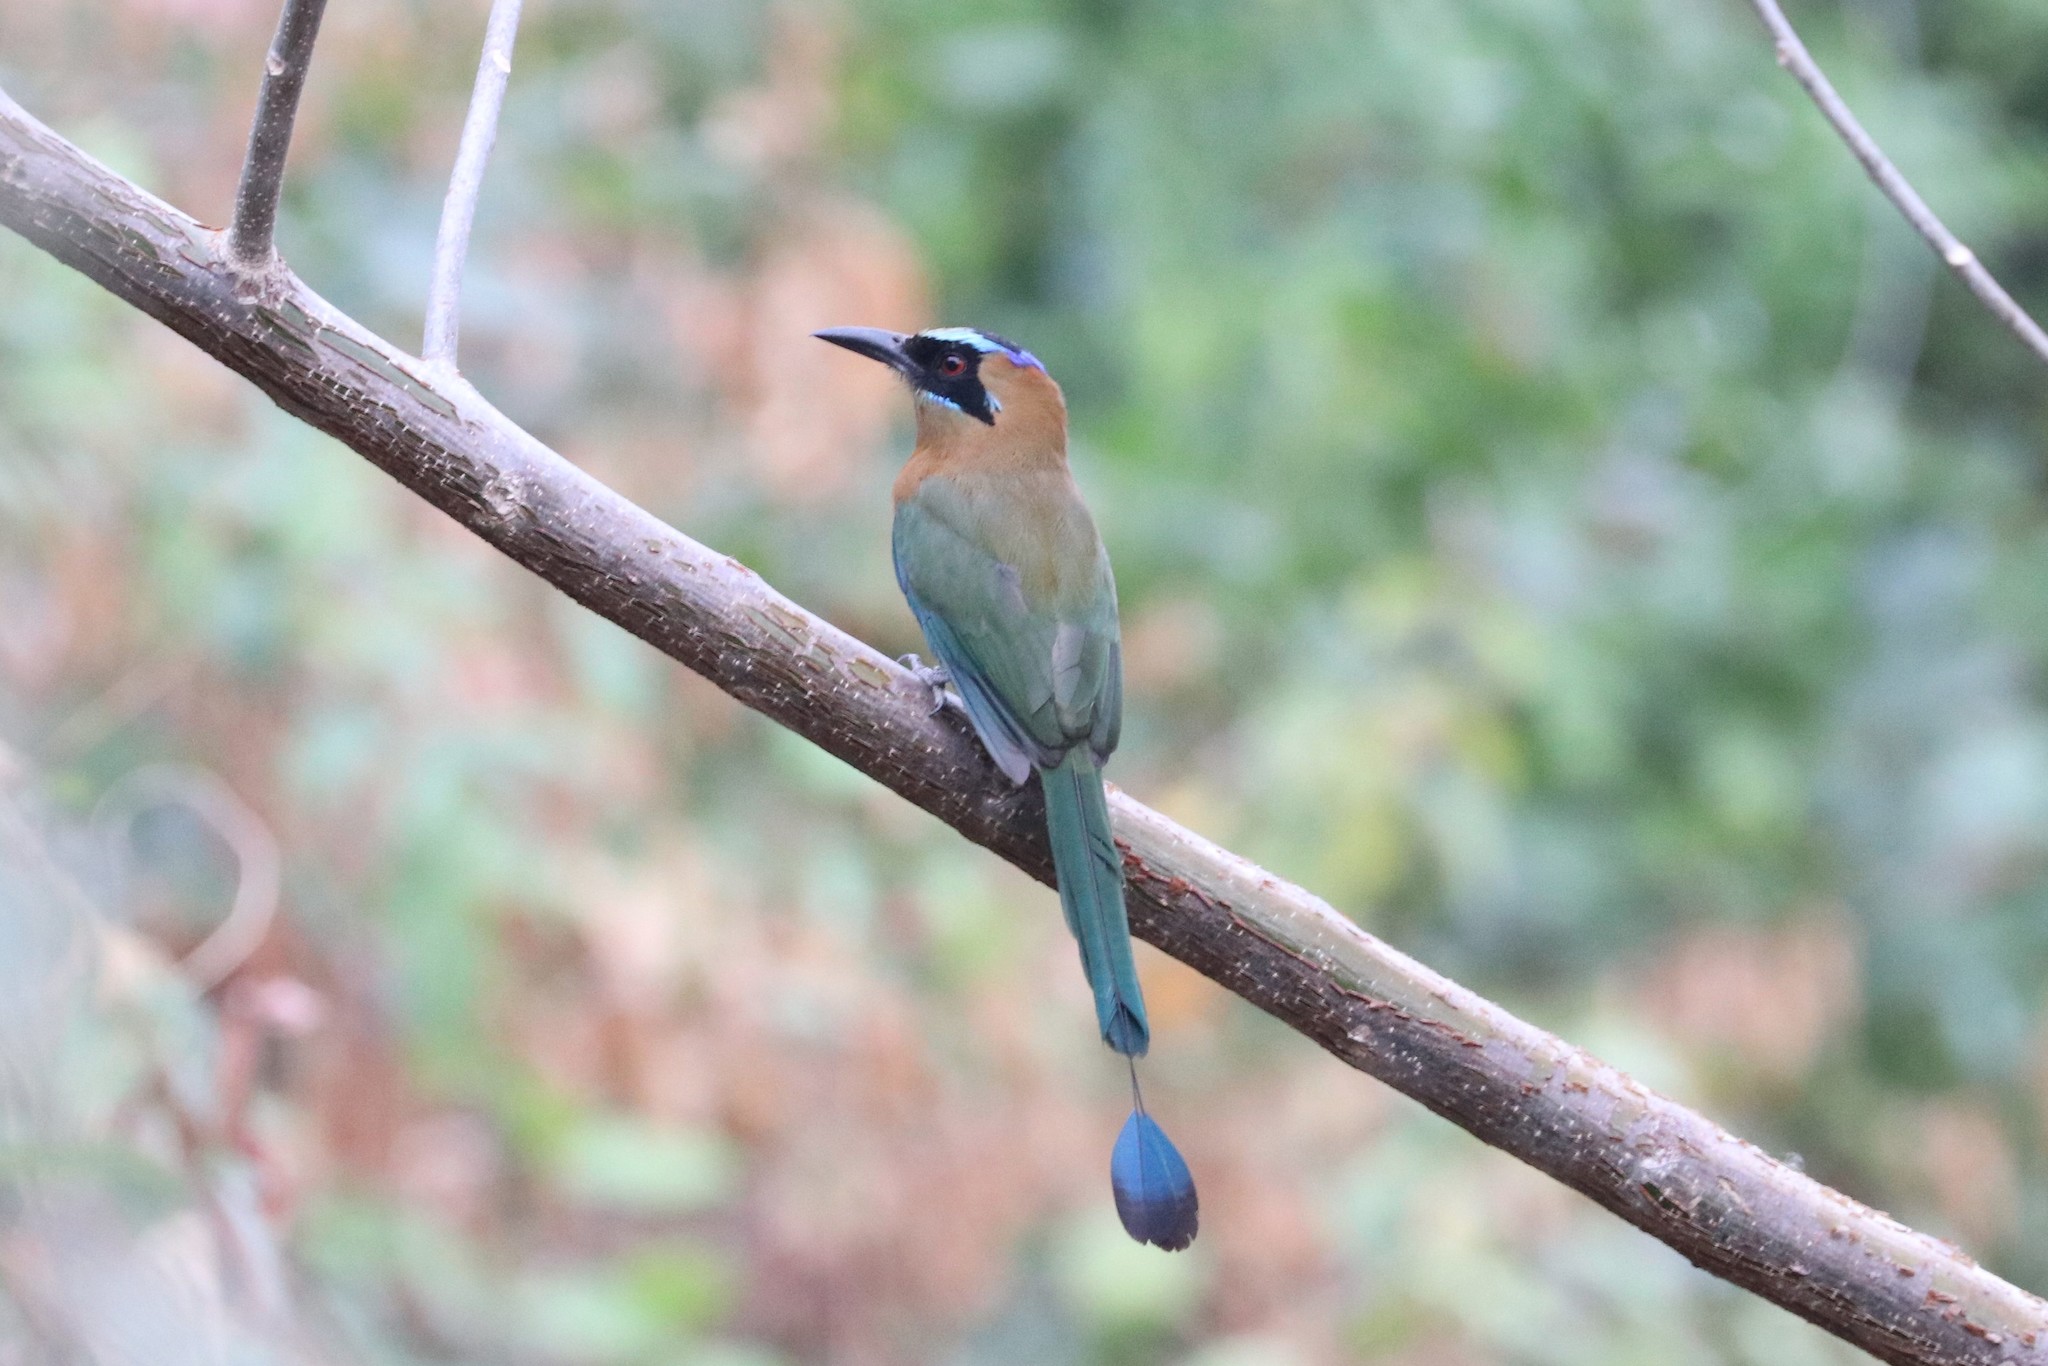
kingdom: Animalia
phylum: Chordata
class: Aves
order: Coraciiformes
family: Momotidae
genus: Momotus
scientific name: Momotus subrufescens
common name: Whooping motmot
